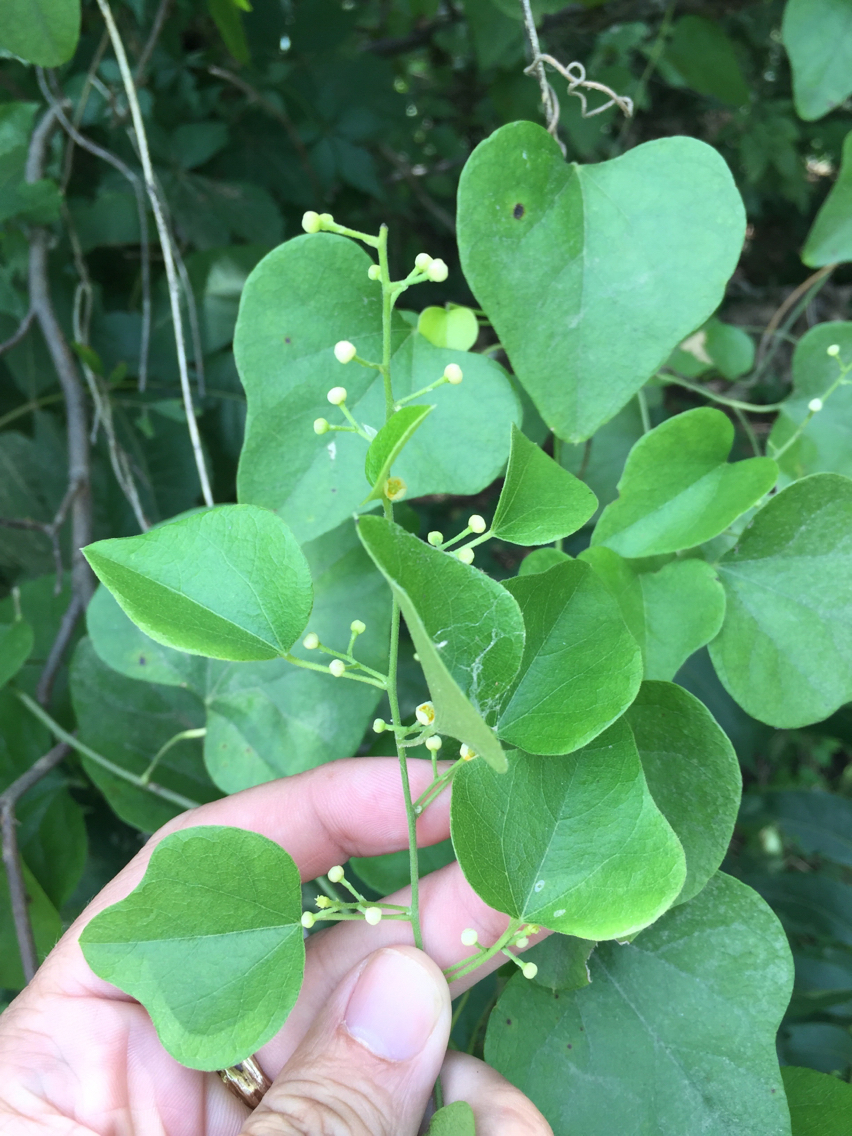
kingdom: Plantae
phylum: Tracheophyta
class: Magnoliopsida
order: Ranunculales
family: Menispermaceae
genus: Cocculus
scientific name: Cocculus carolinus
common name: Carolina moonseed
